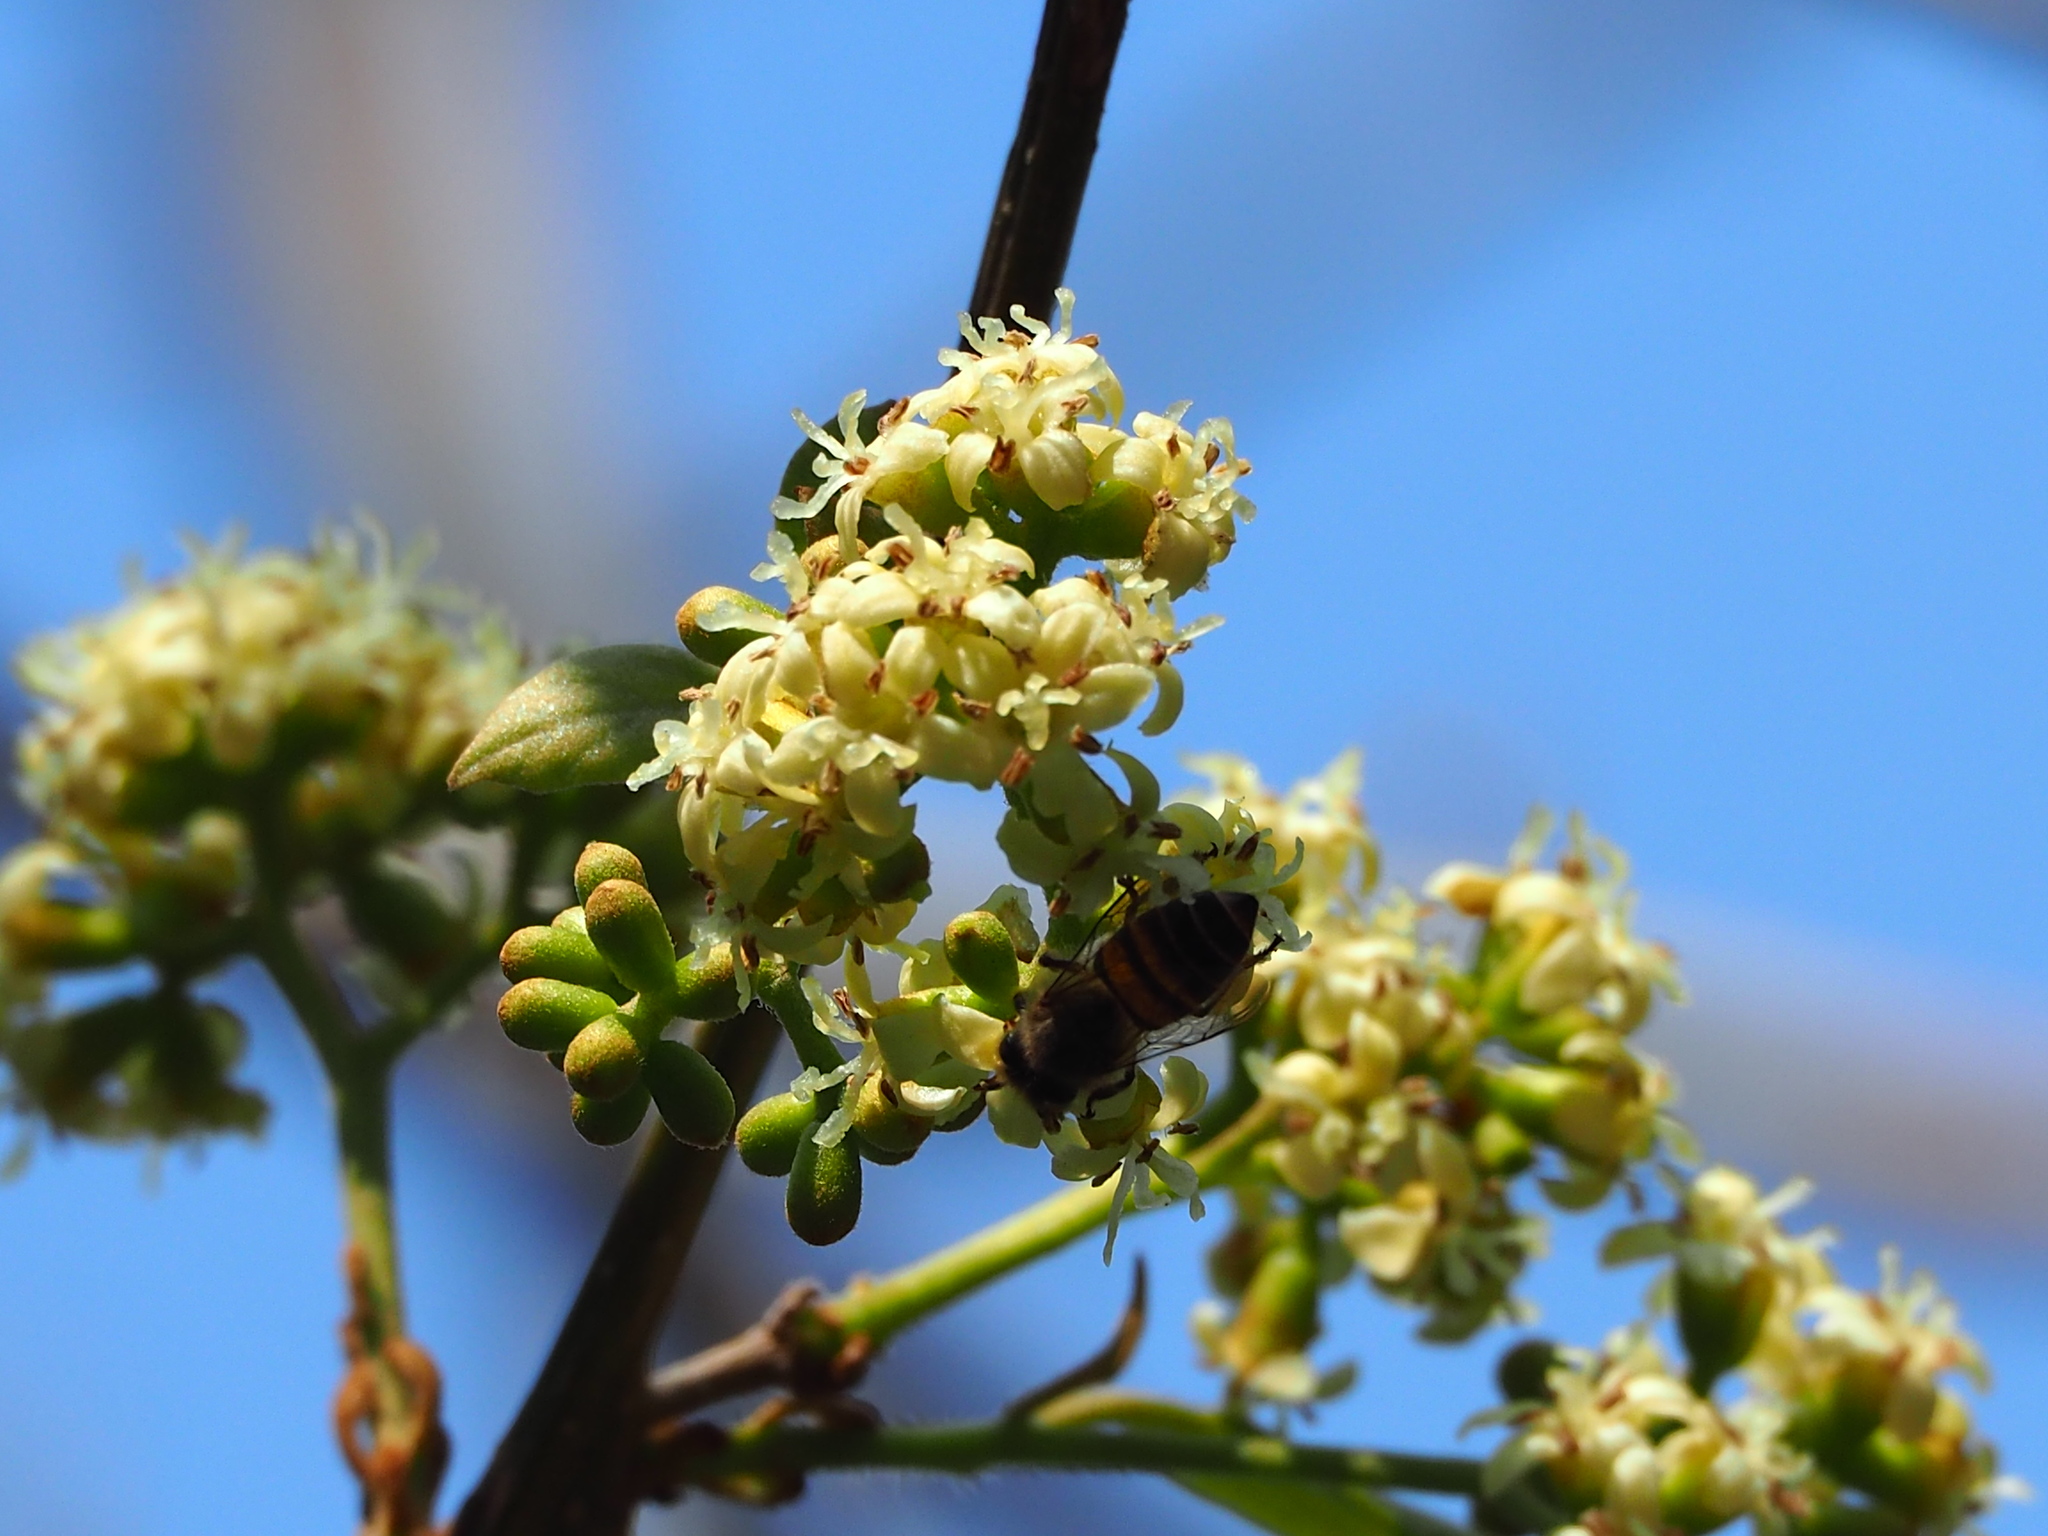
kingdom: Plantae
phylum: Tracheophyta
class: Magnoliopsida
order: Boraginales
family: Cordiaceae
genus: Cordia
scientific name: Cordia dichotoma
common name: Fragrant manjack
